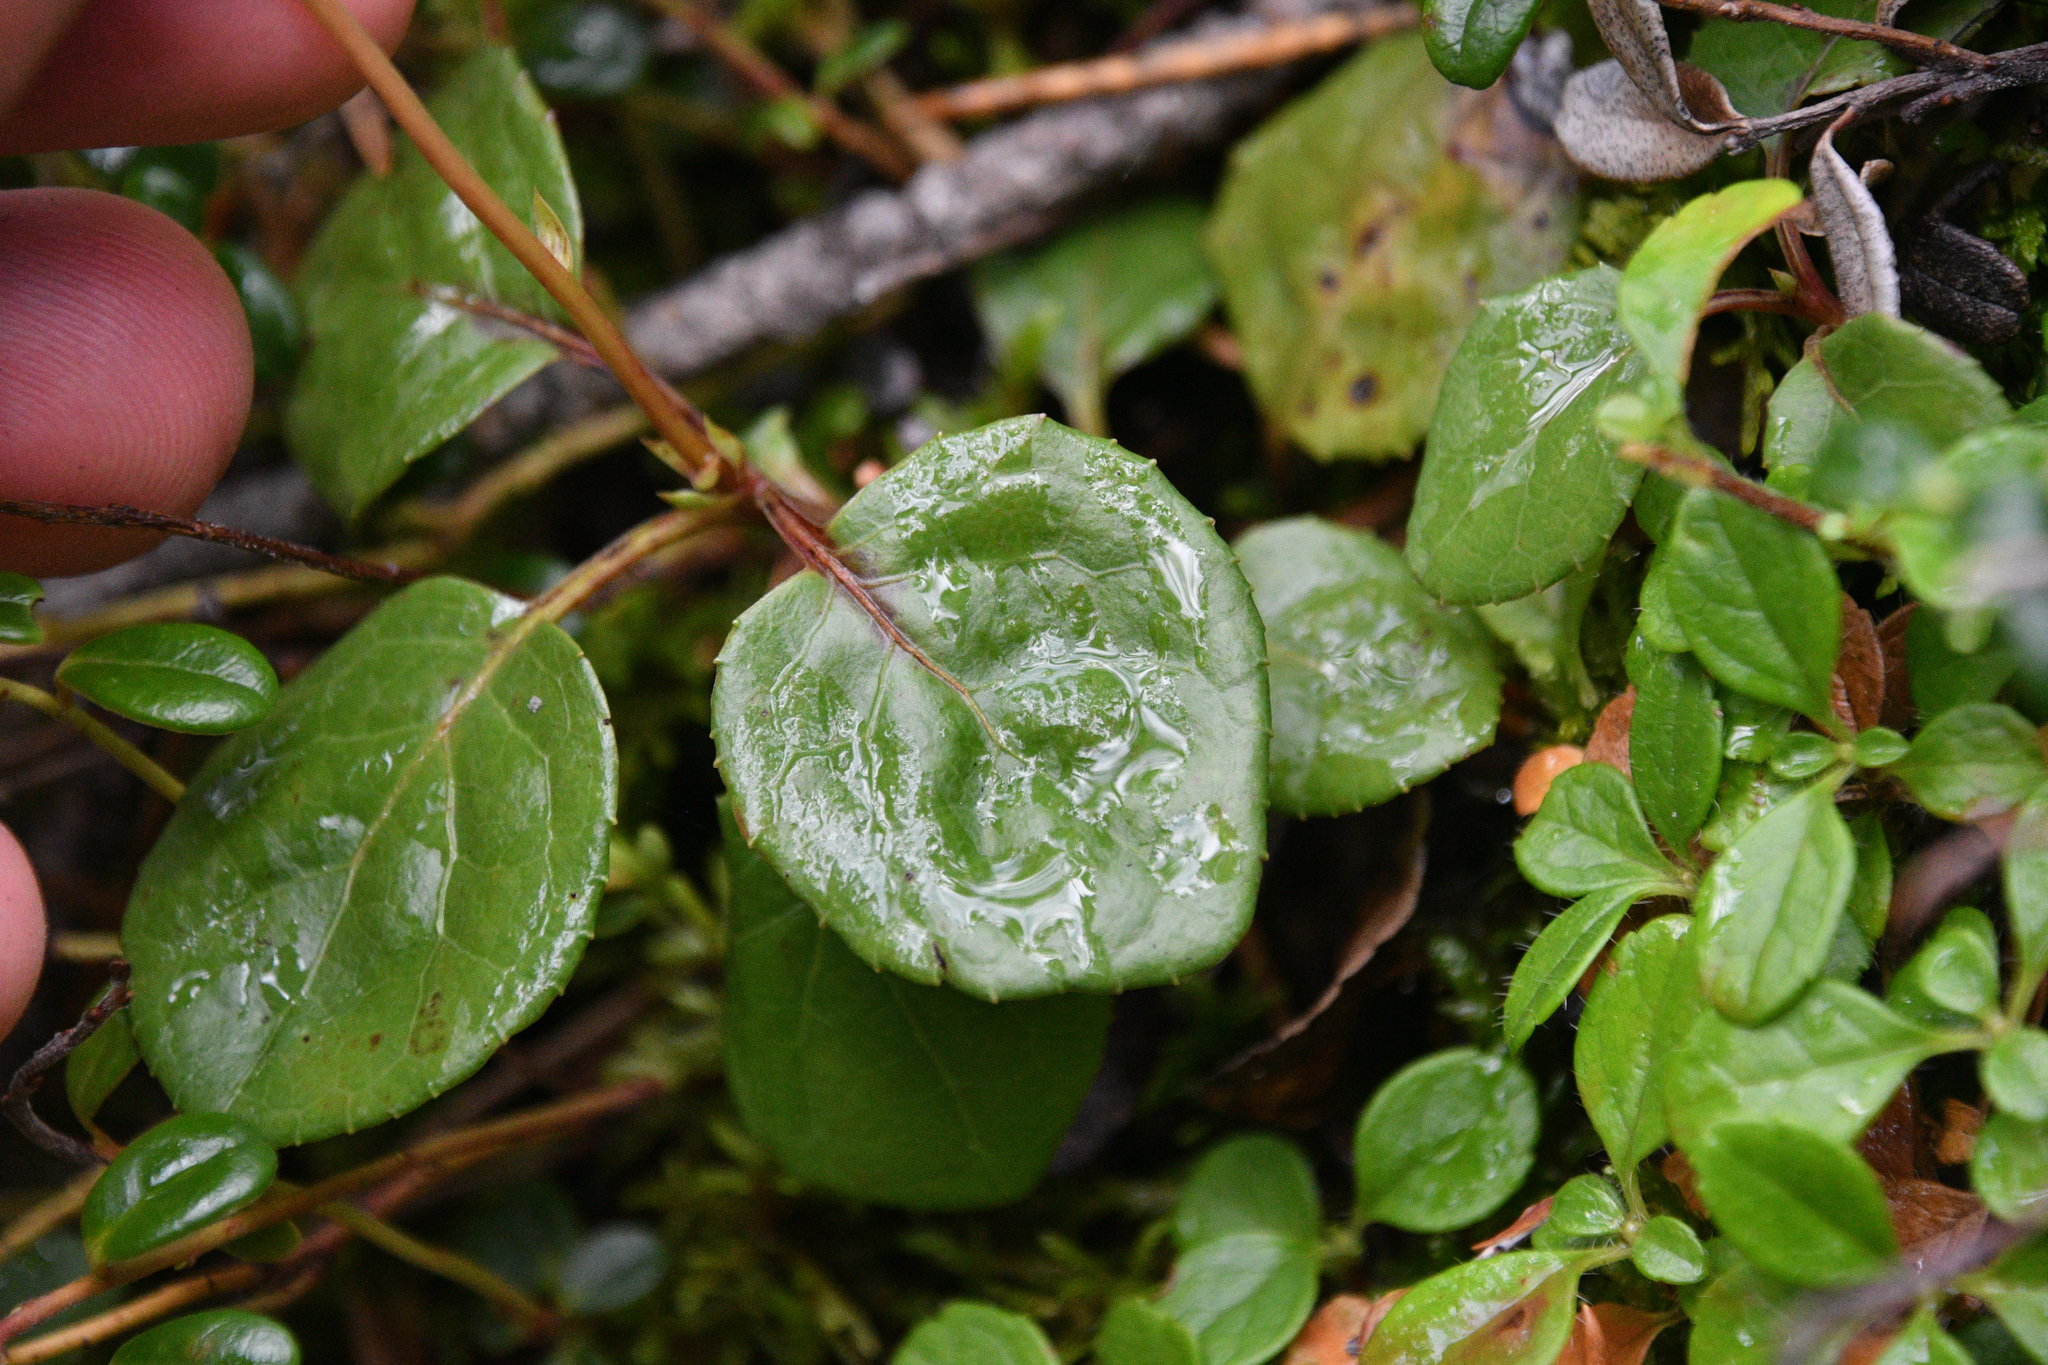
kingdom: Plantae
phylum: Tracheophyta
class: Magnoliopsida
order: Ericales
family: Ericaceae
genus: Orthilia
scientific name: Orthilia secunda
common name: One-sided orthilia
